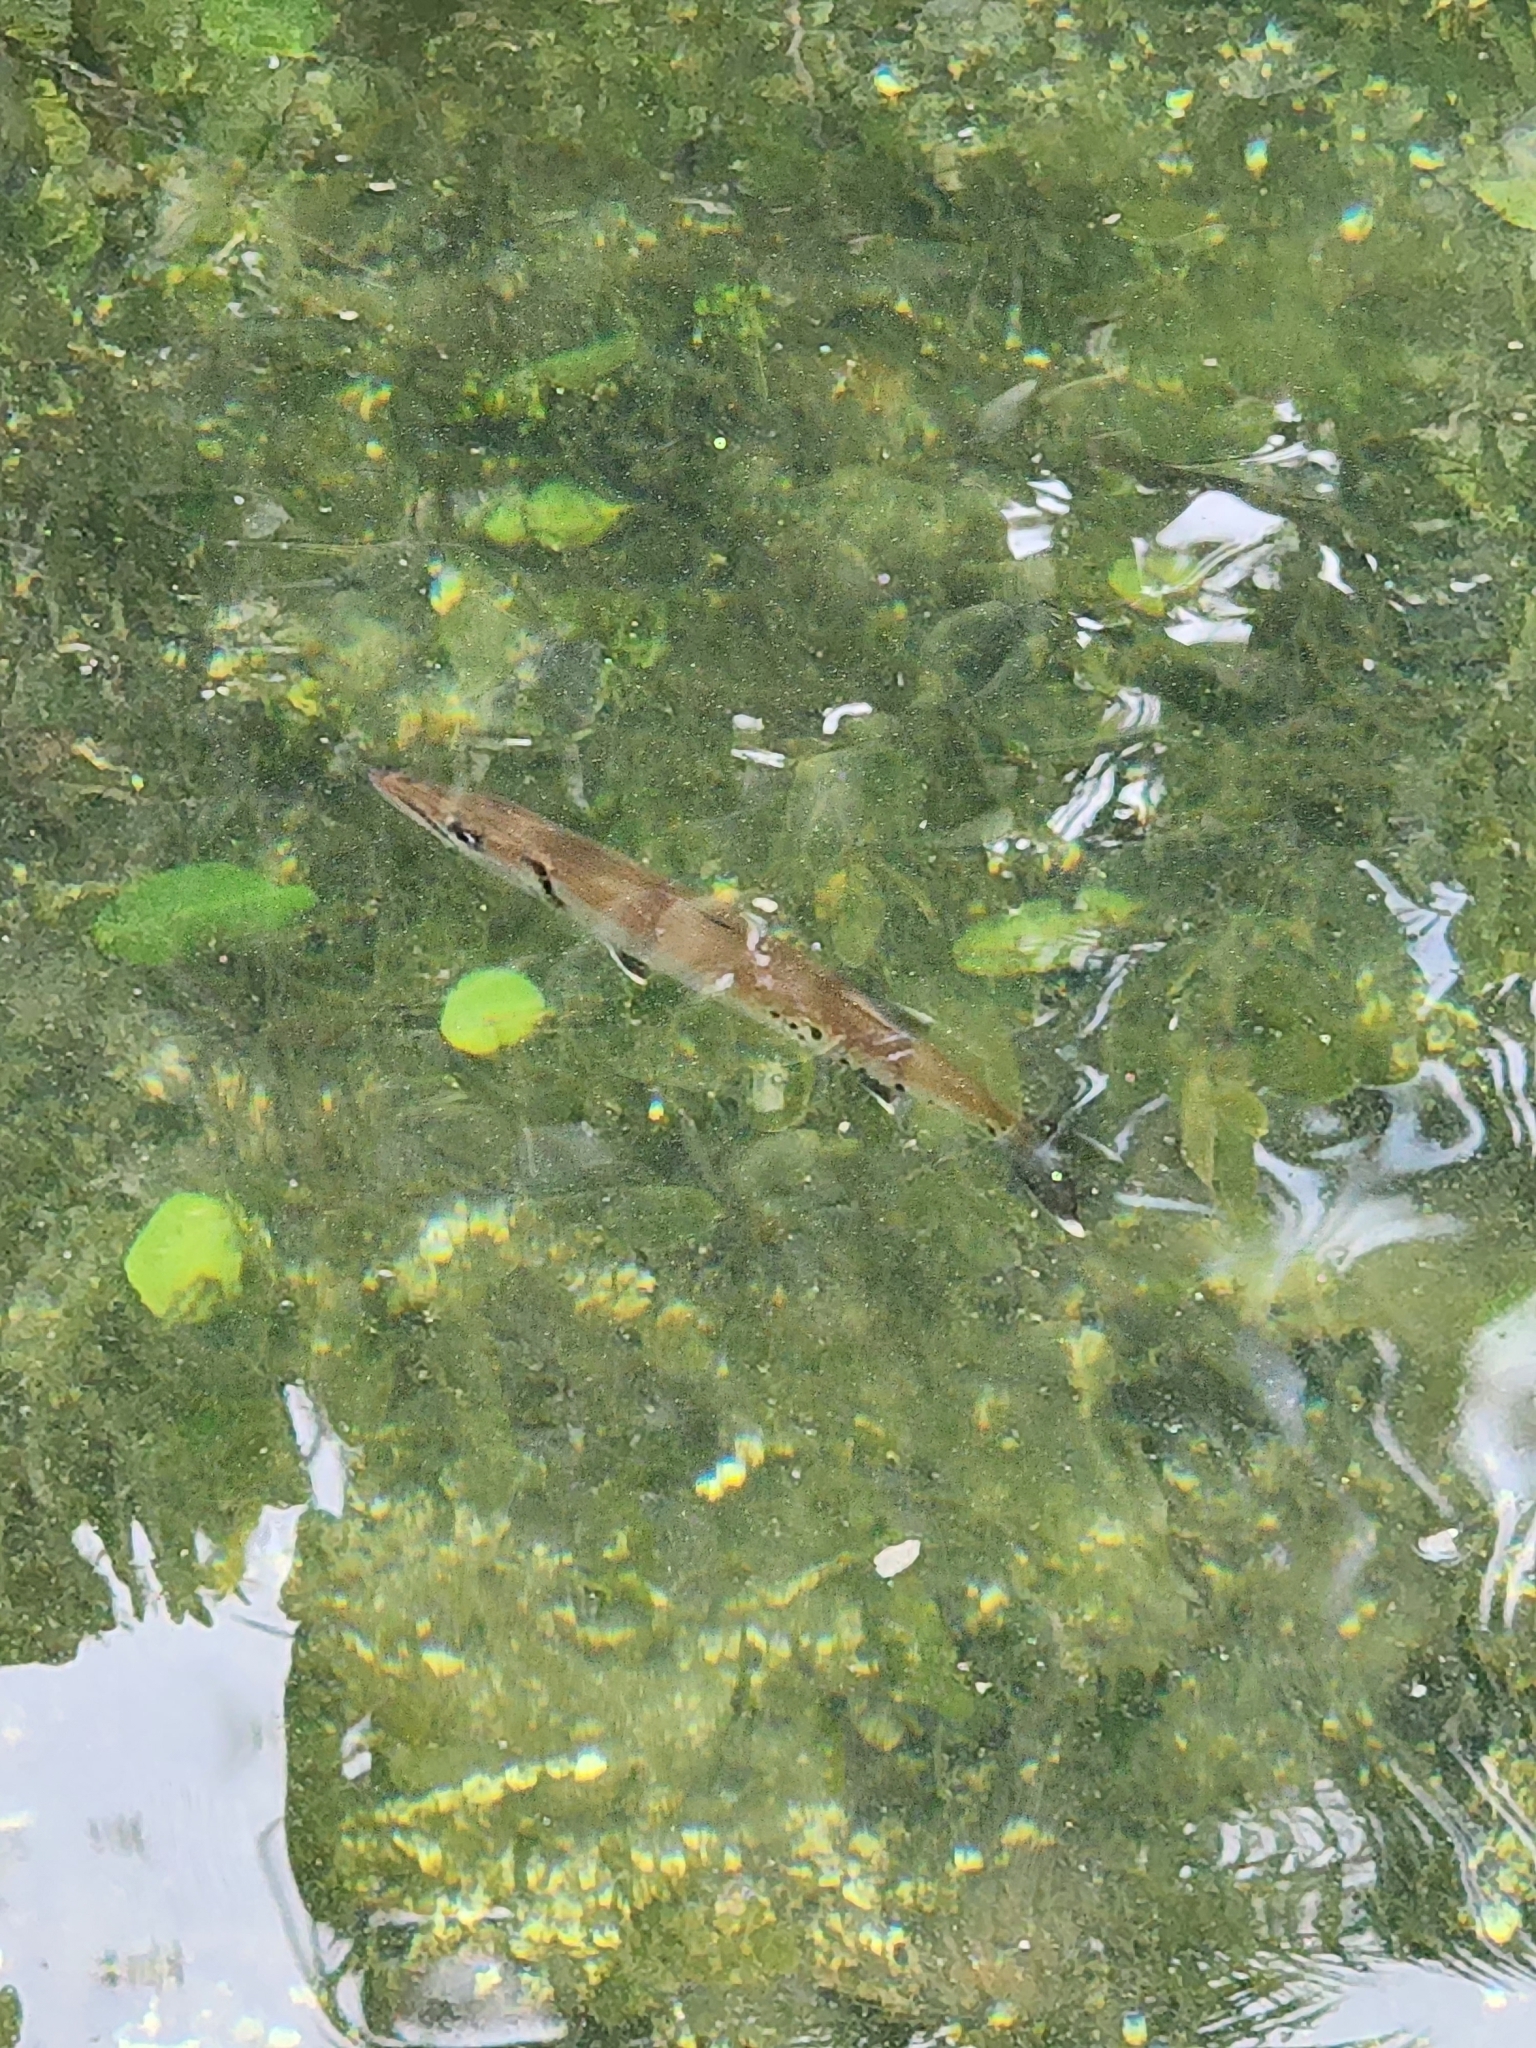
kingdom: Animalia
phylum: Chordata
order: Perciformes
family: Sphyraenidae
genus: Sphyraena
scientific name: Sphyraena barracuda
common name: Great barracuda
